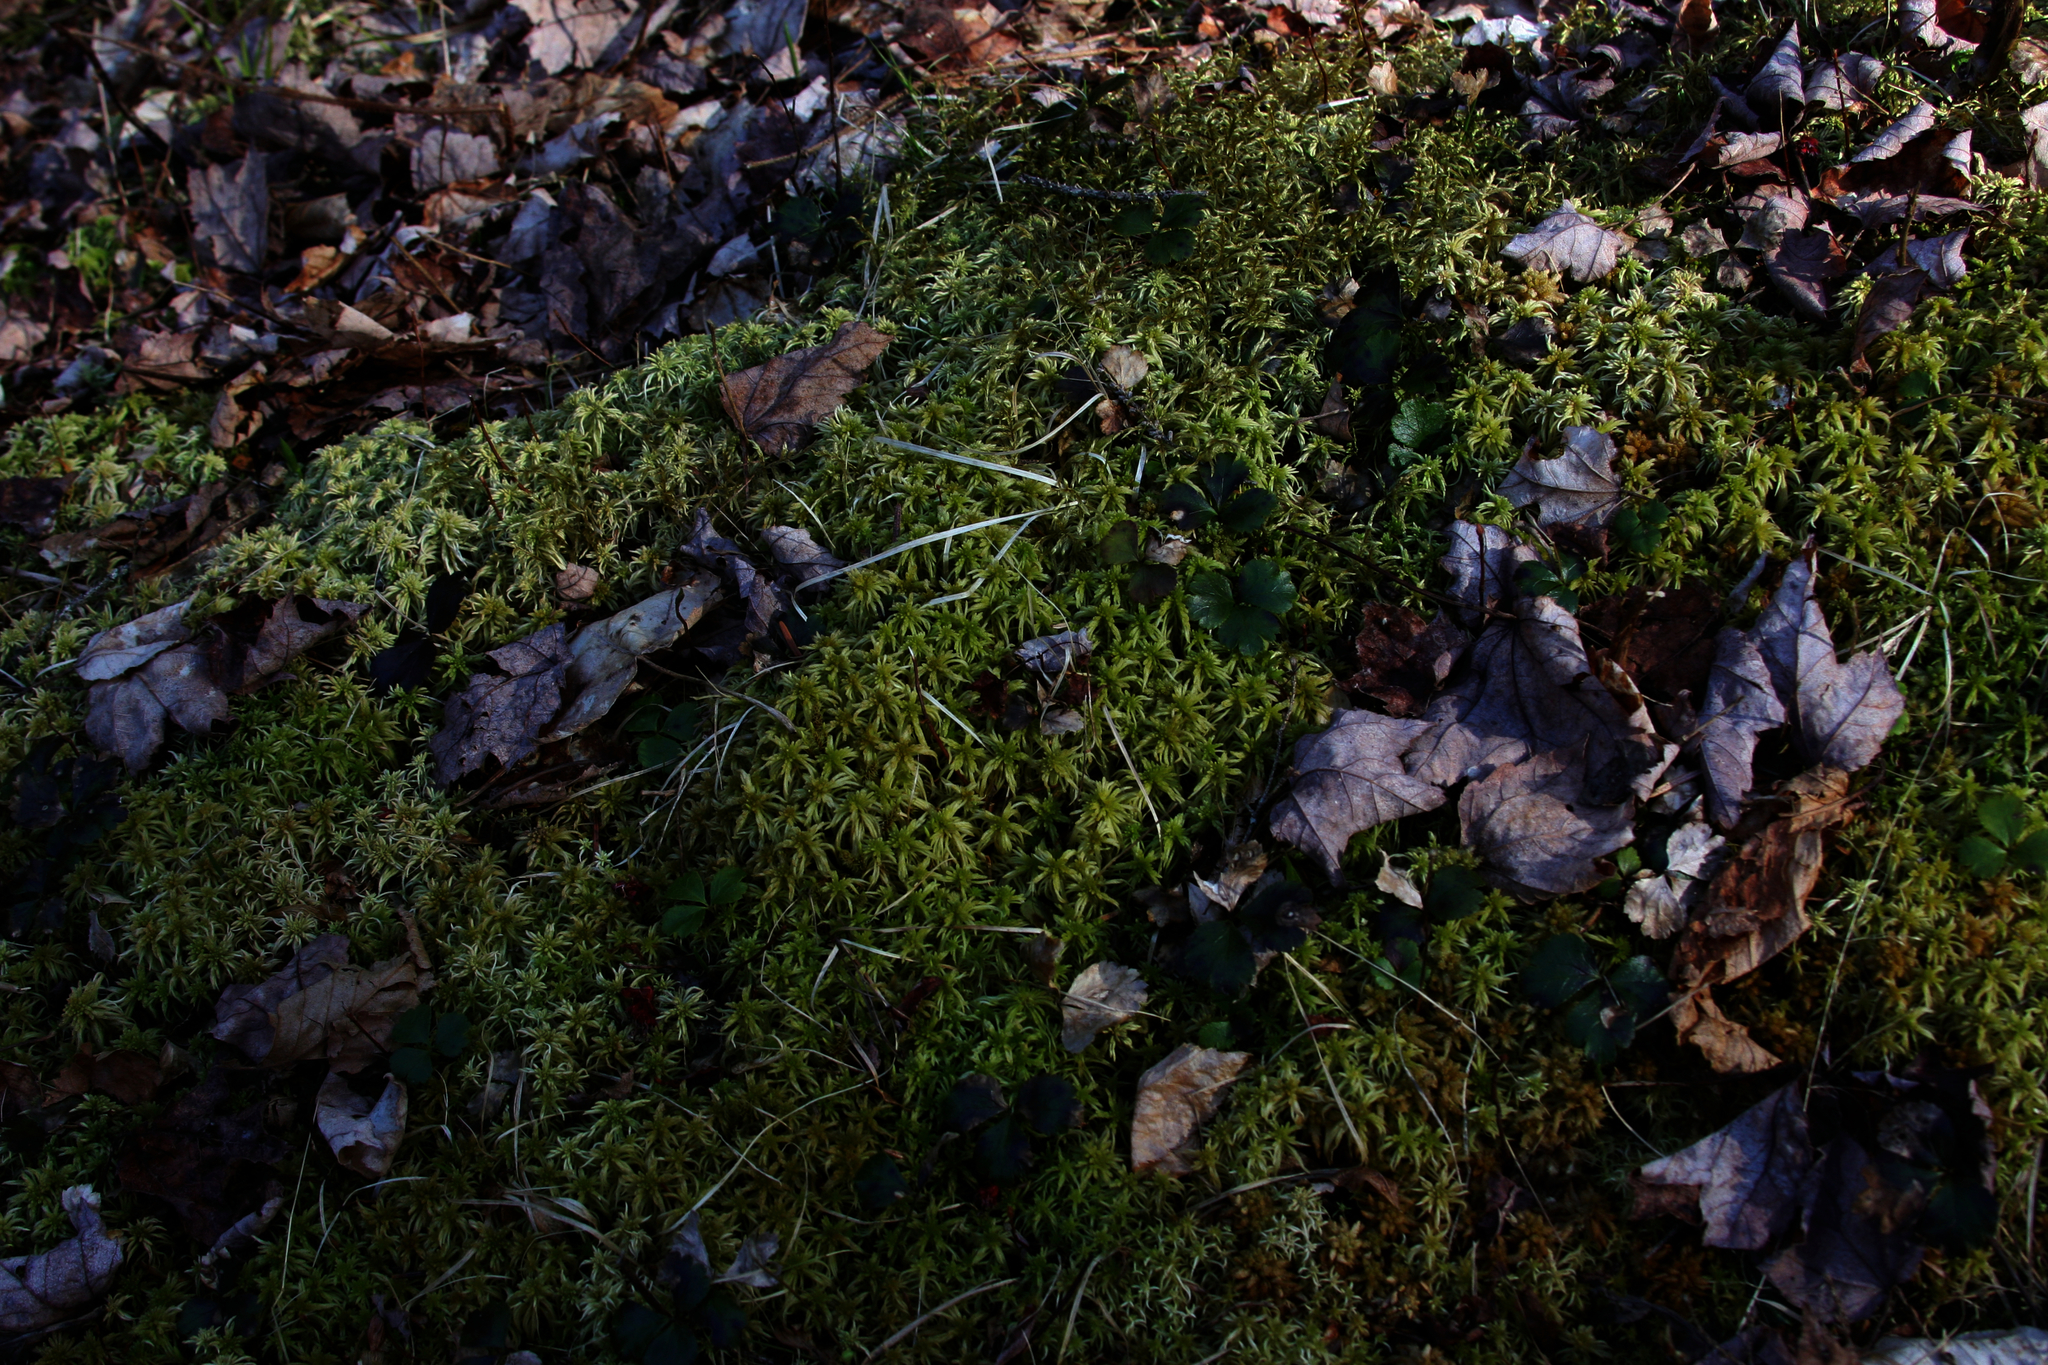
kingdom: Plantae
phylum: Tracheophyta
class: Magnoliopsida
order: Ranunculales
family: Ranunculaceae
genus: Coptis
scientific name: Coptis trifolia
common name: Canker-root
